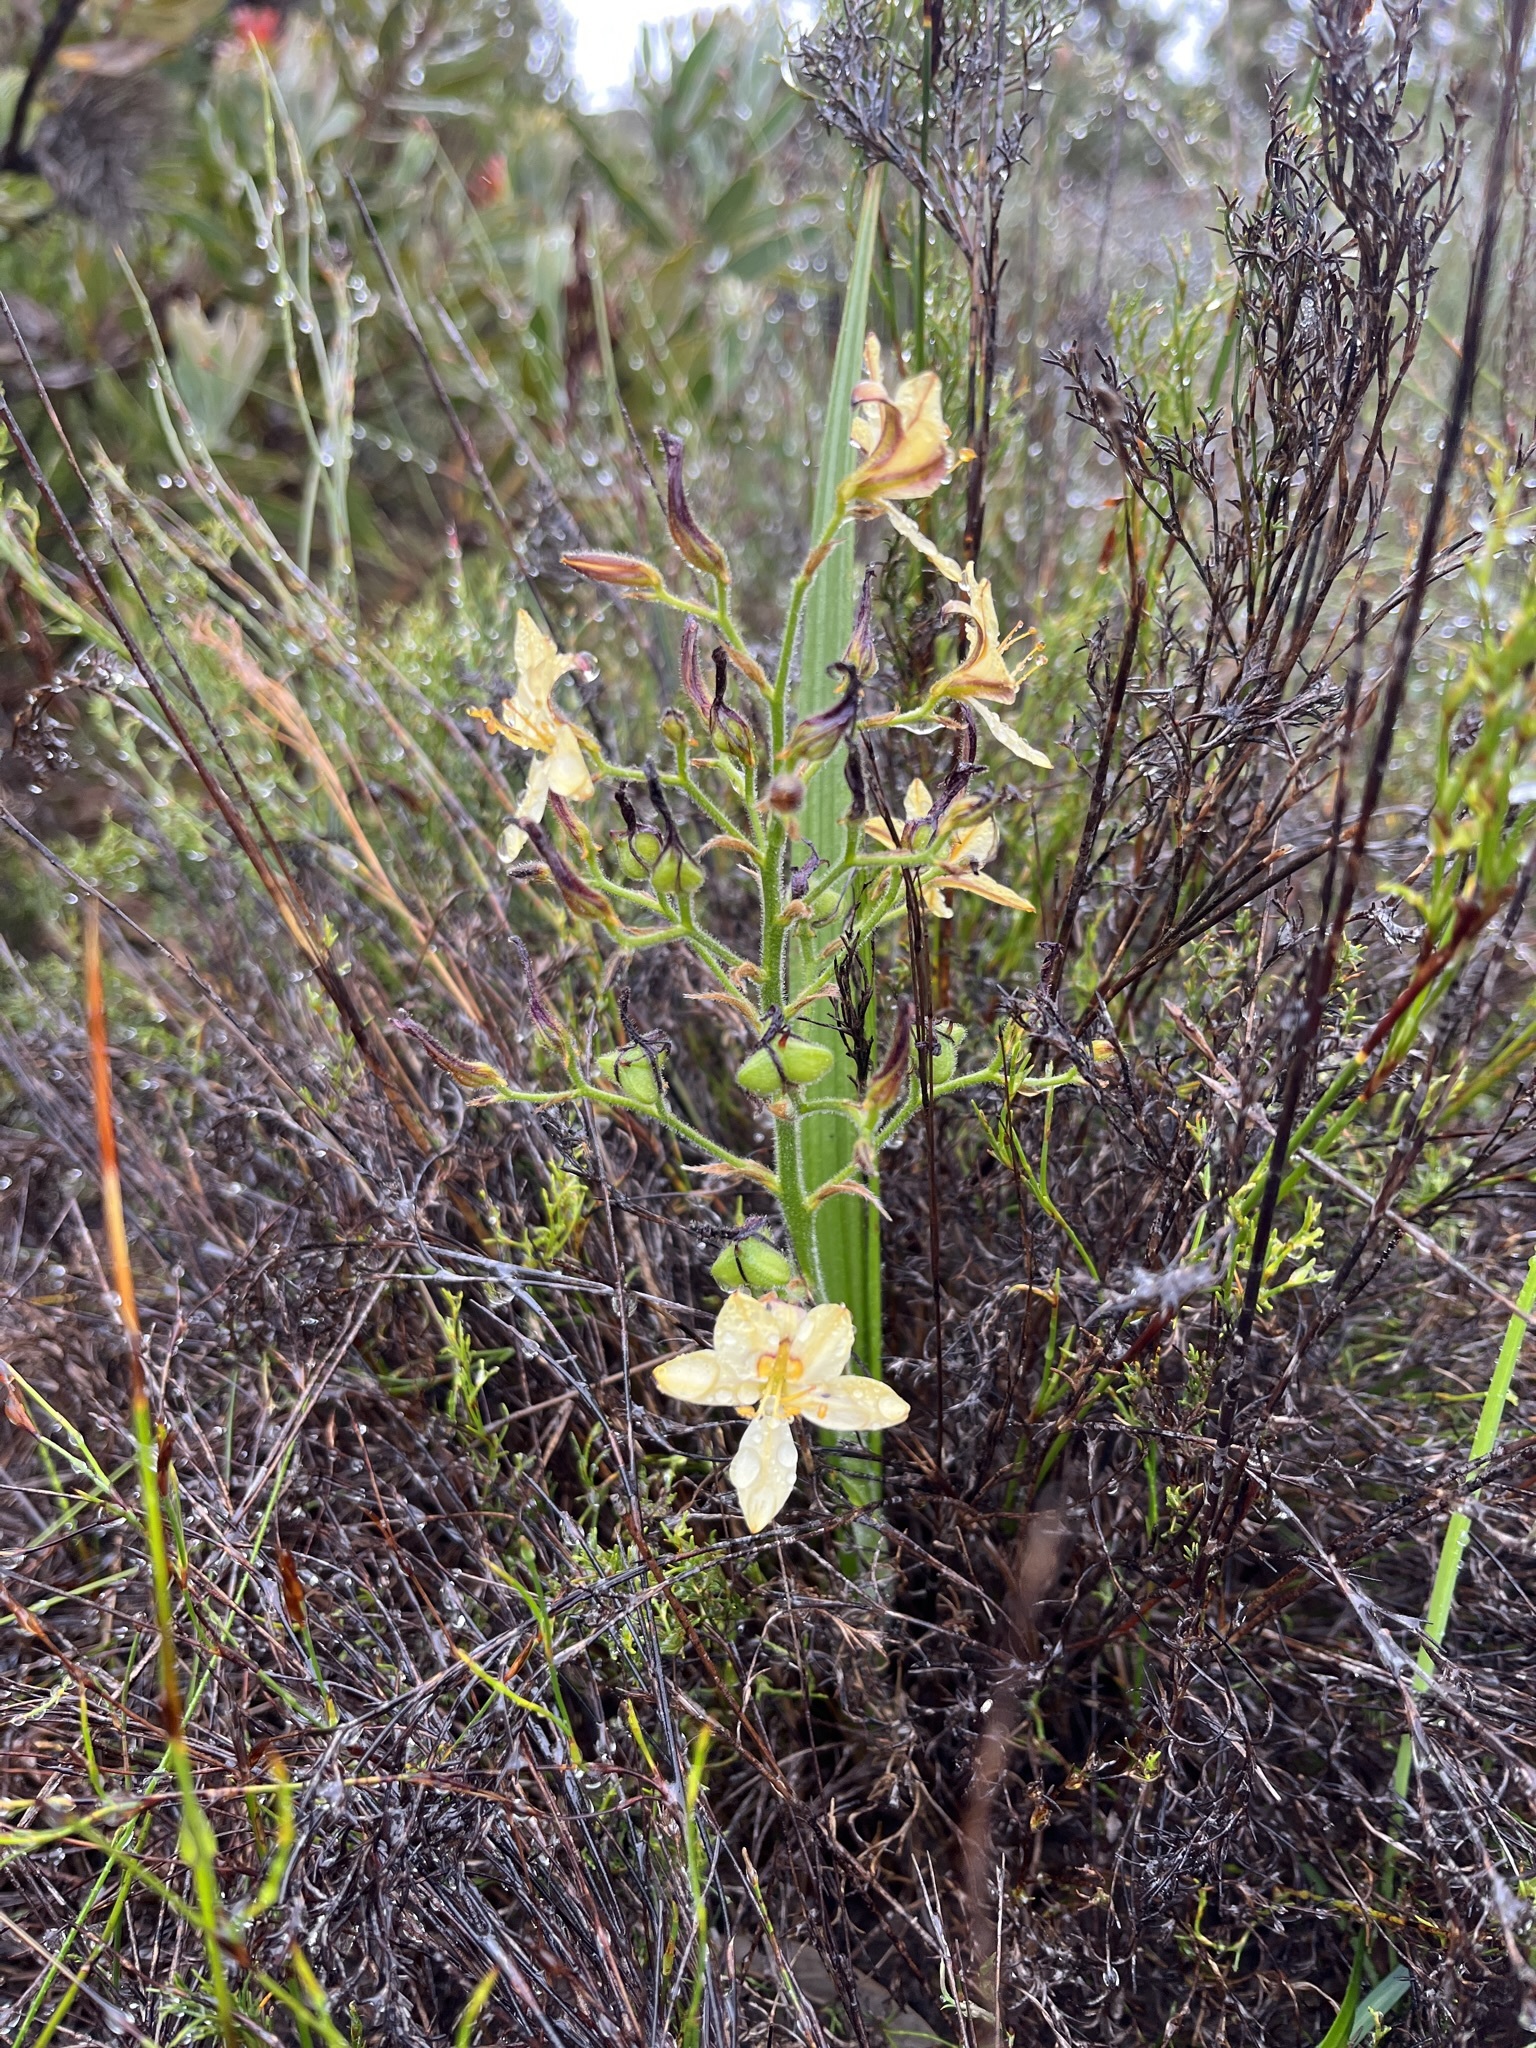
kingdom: Plantae
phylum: Tracheophyta
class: Liliopsida
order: Commelinales
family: Haemodoraceae
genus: Wachendorfia
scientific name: Wachendorfia paniculata
